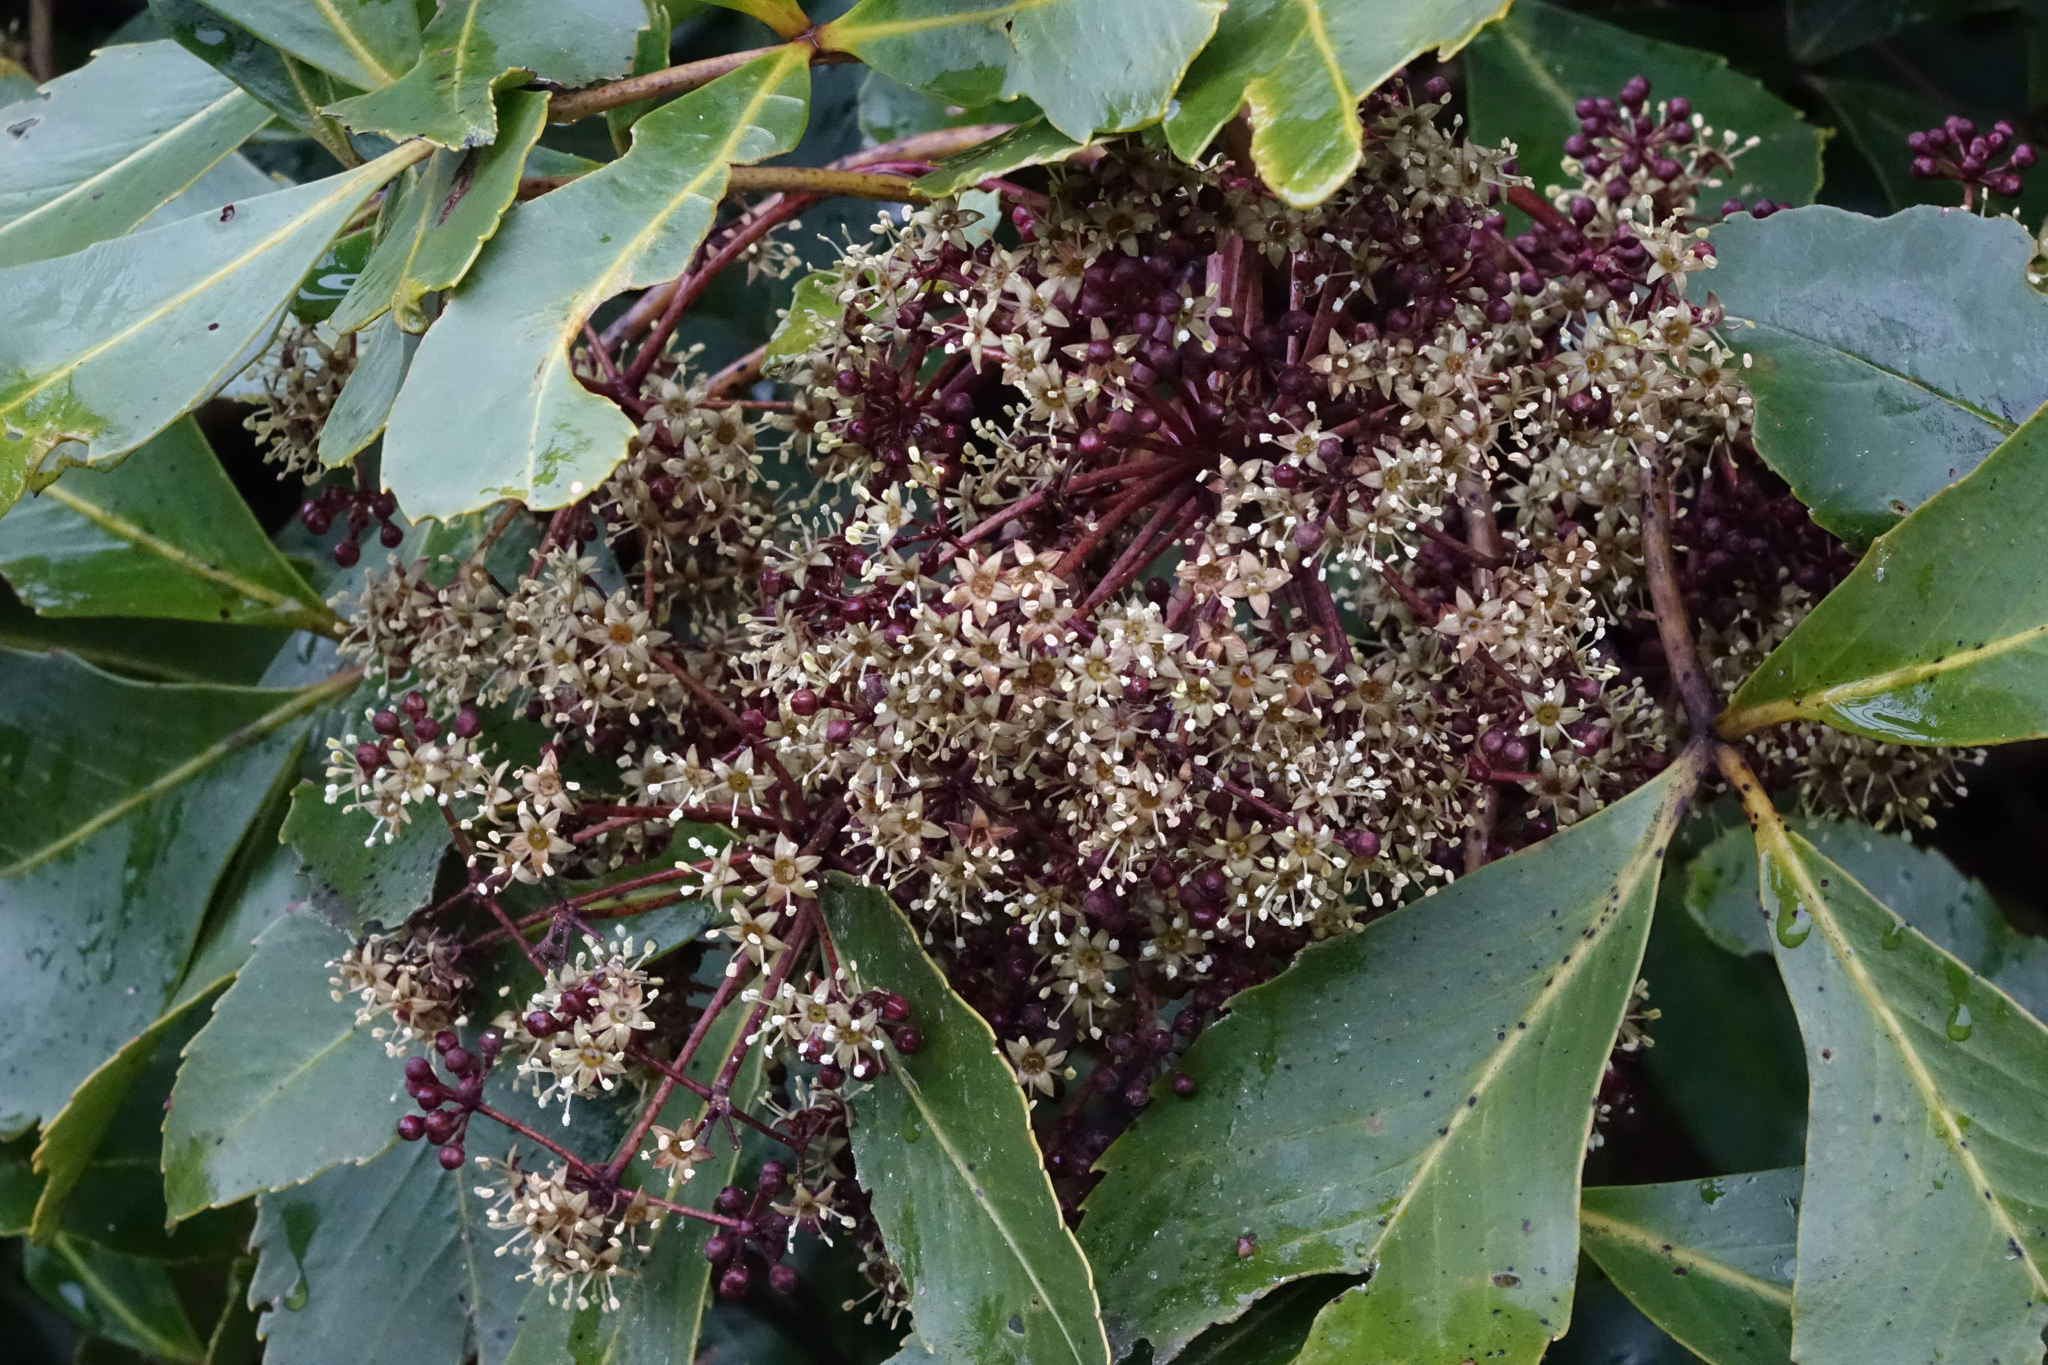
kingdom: Plantae
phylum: Tracheophyta
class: Magnoliopsida
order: Apiales
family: Araliaceae
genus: Neopanax
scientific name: Neopanax colensoi
